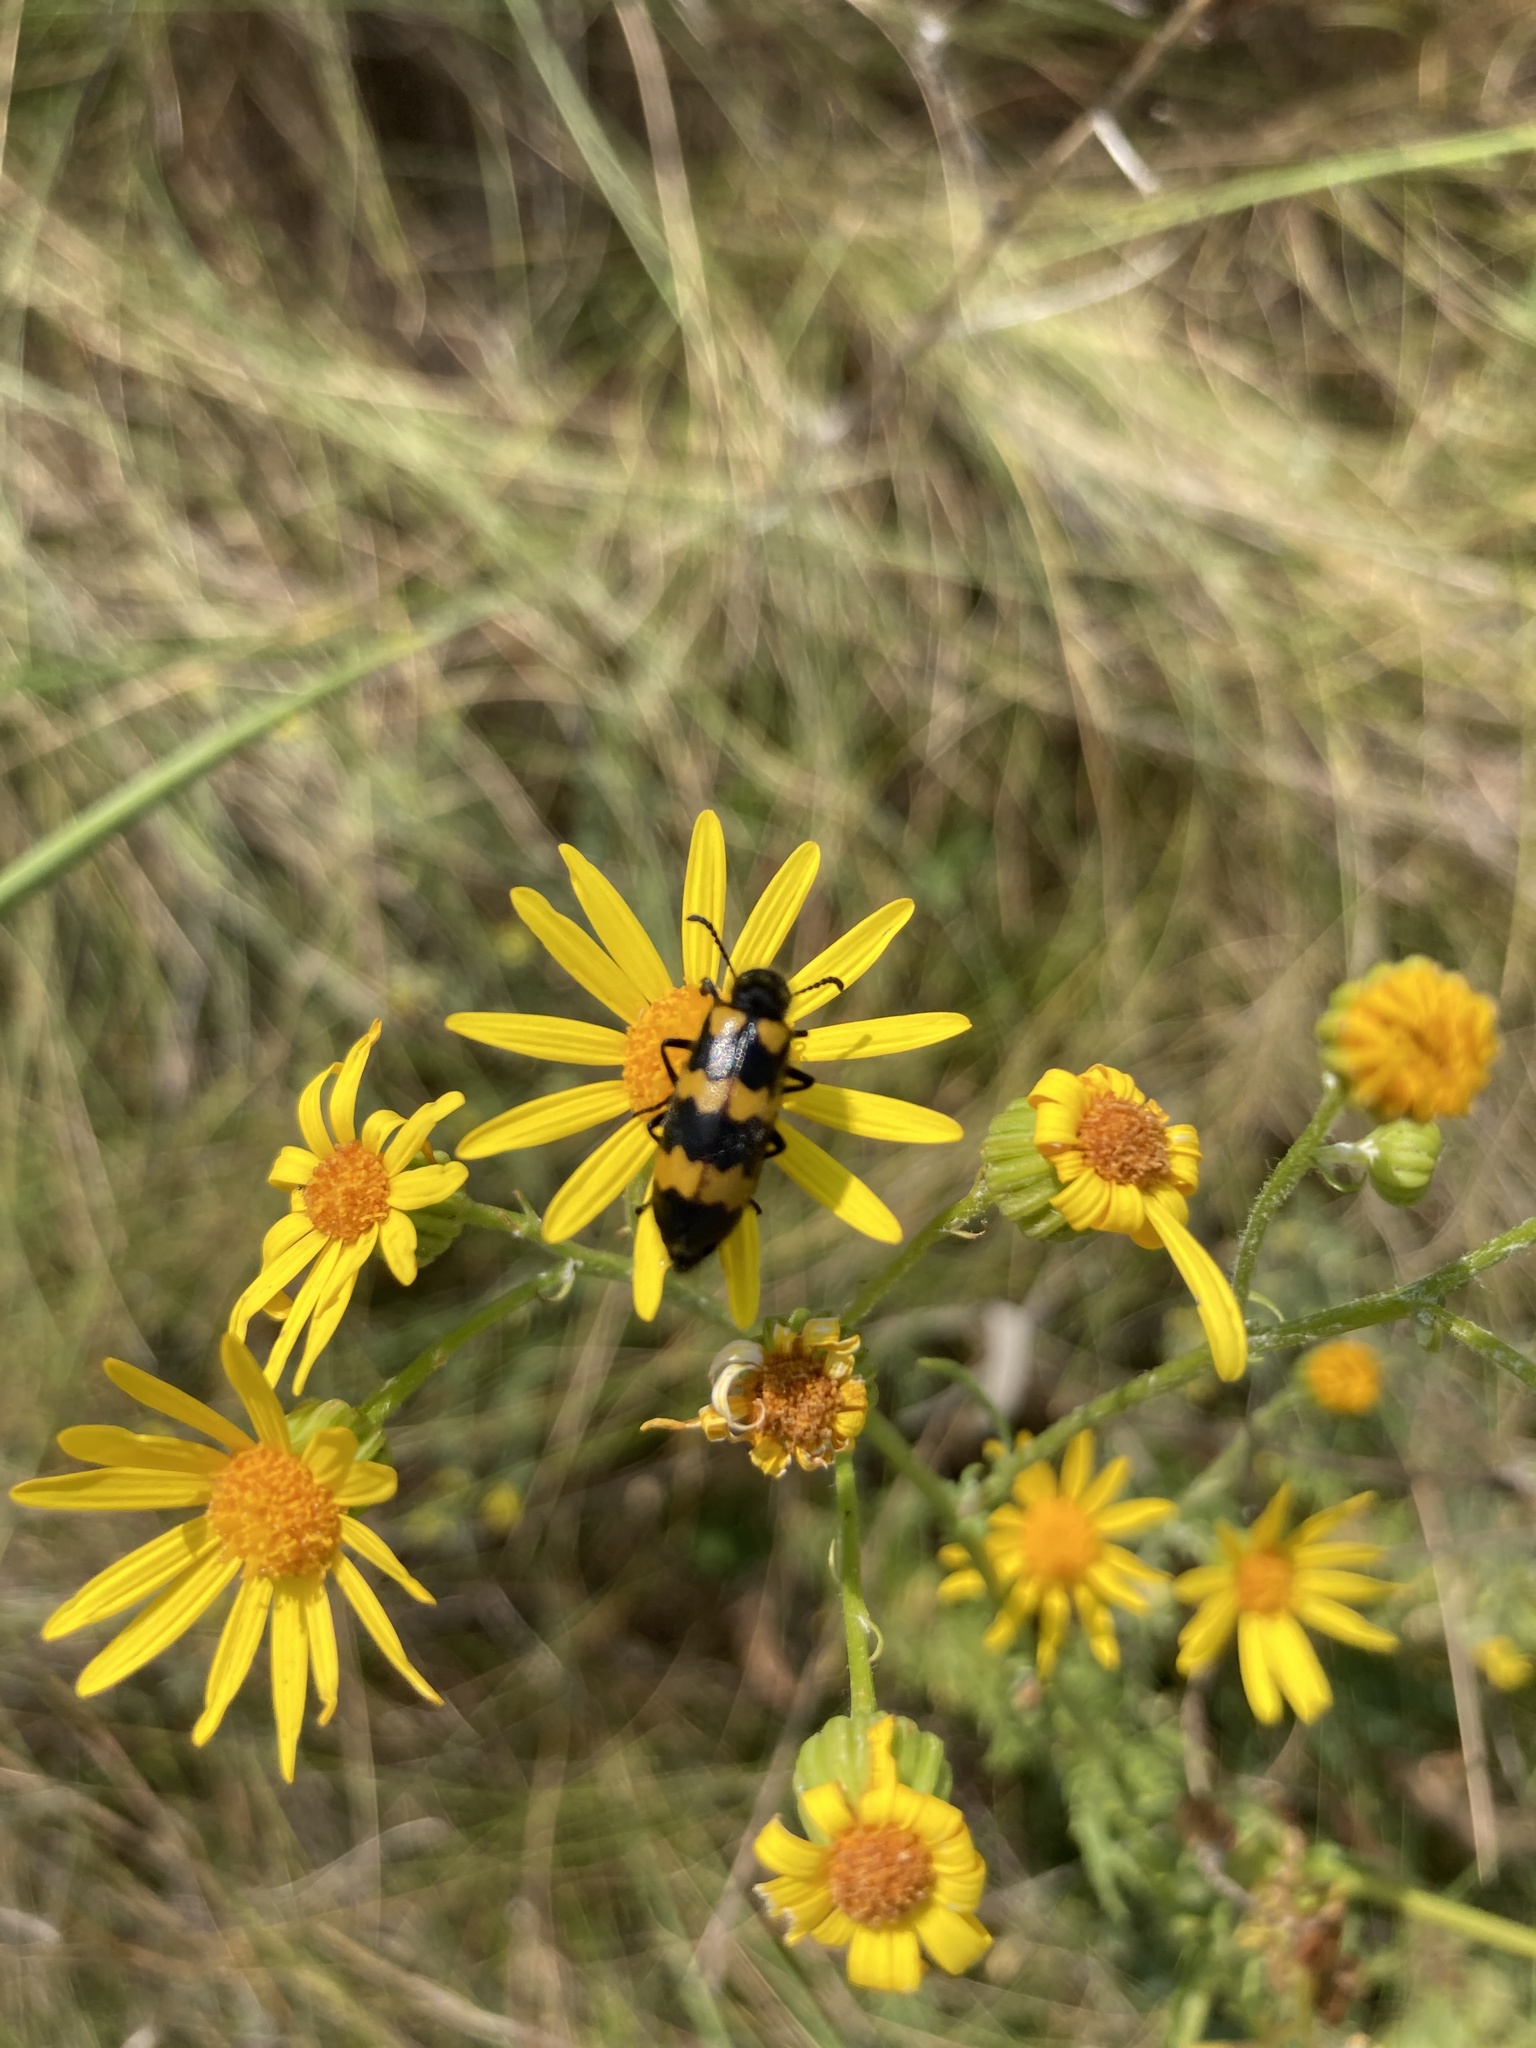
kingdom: Animalia
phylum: Arthropoda
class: Insecta
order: Coleoptera
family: Meloidae
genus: Mylabris
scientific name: Mylabris variabilis
